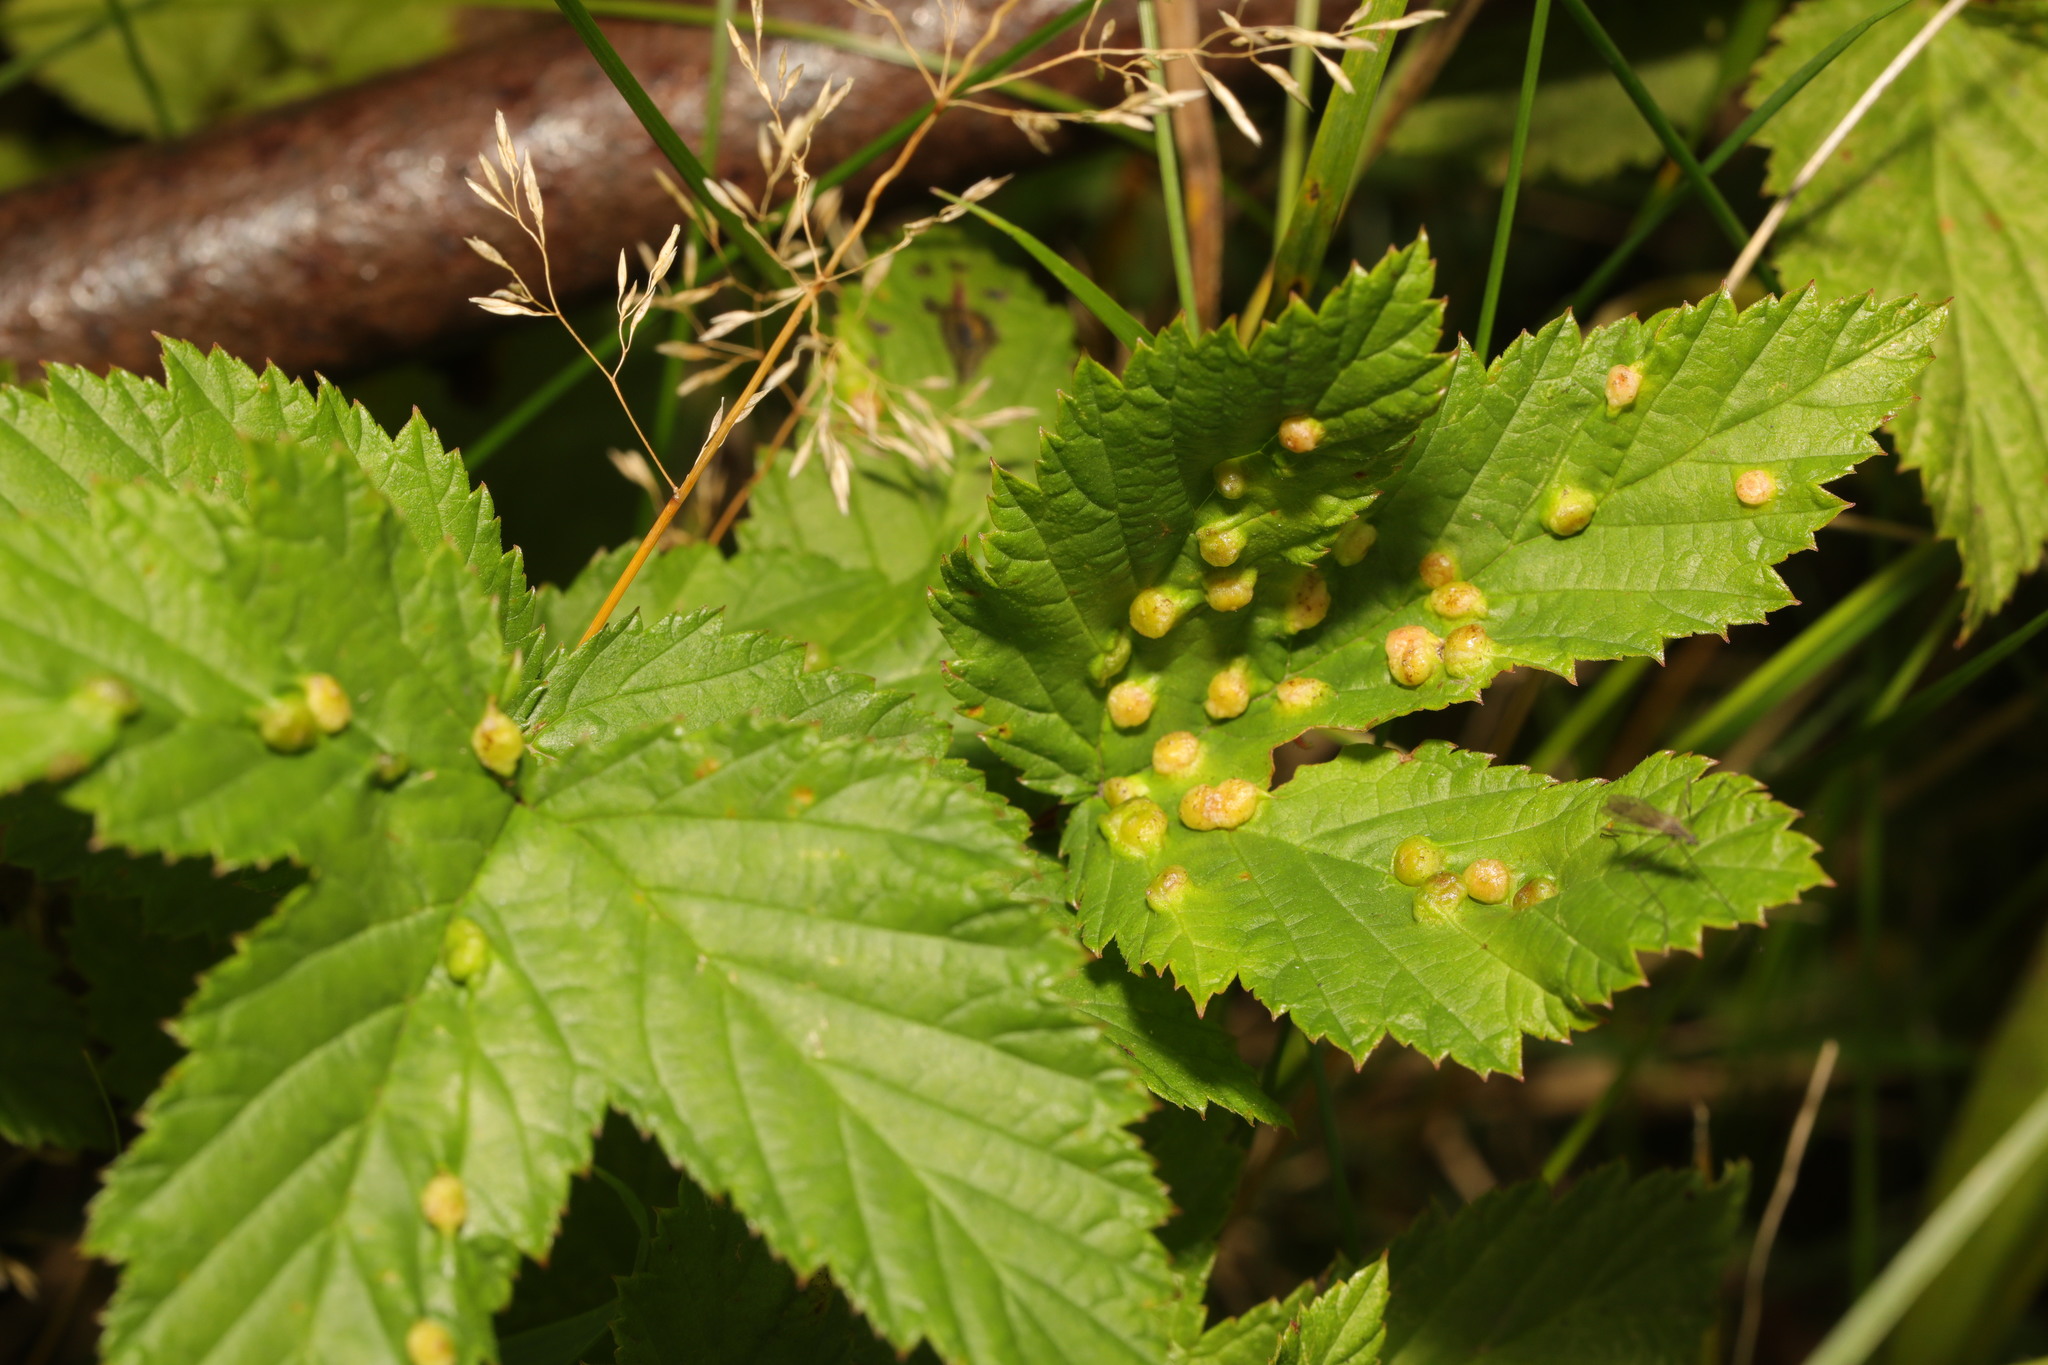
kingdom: Animalia
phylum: Arthropoda
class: Insecta
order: Diptera
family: Cecidomyiidae
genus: Dasineura
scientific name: Dasineura ulmaria
